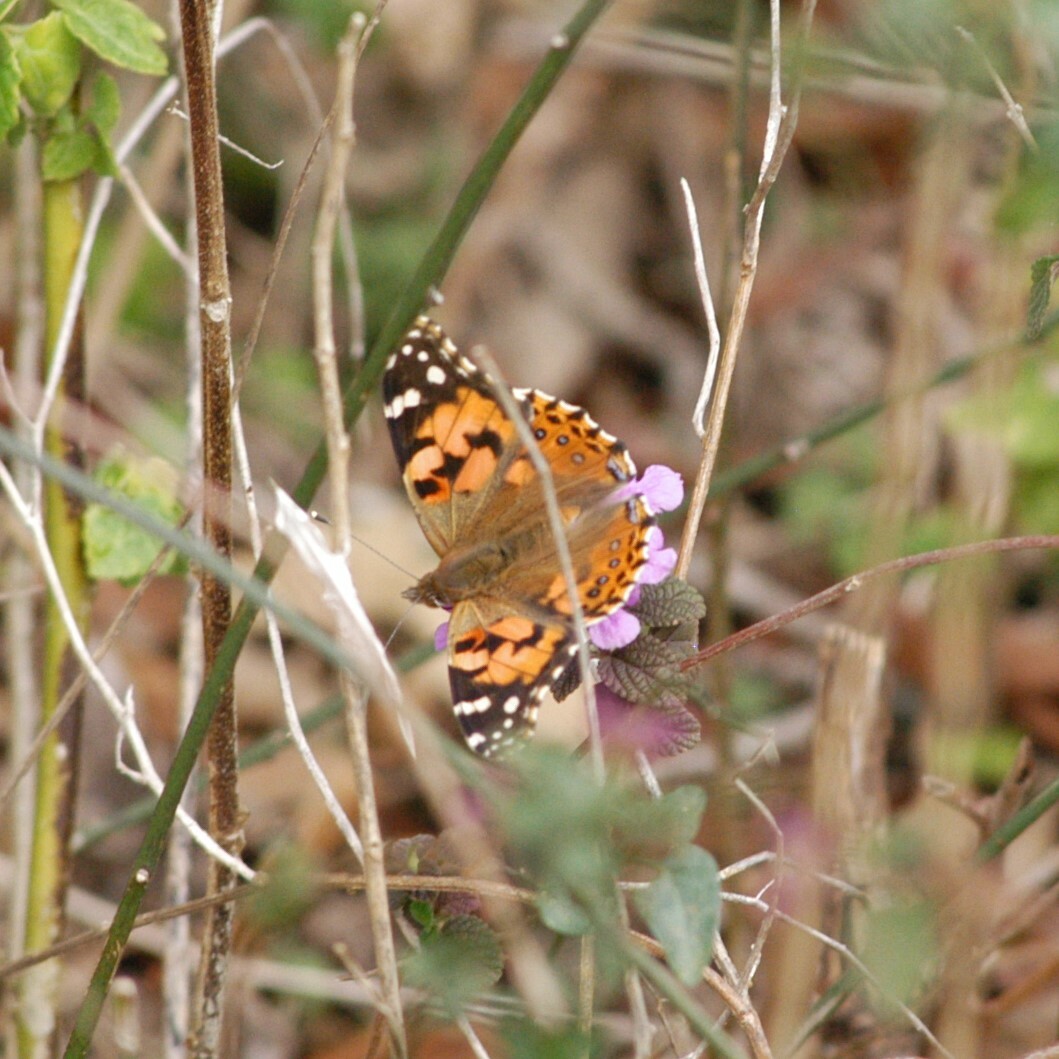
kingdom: Animalia
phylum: Arthropoda
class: Insecta
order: Lepidoptera
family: Nymphalidae
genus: Vanessa
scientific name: Vanessa cardui
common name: Painted lady
